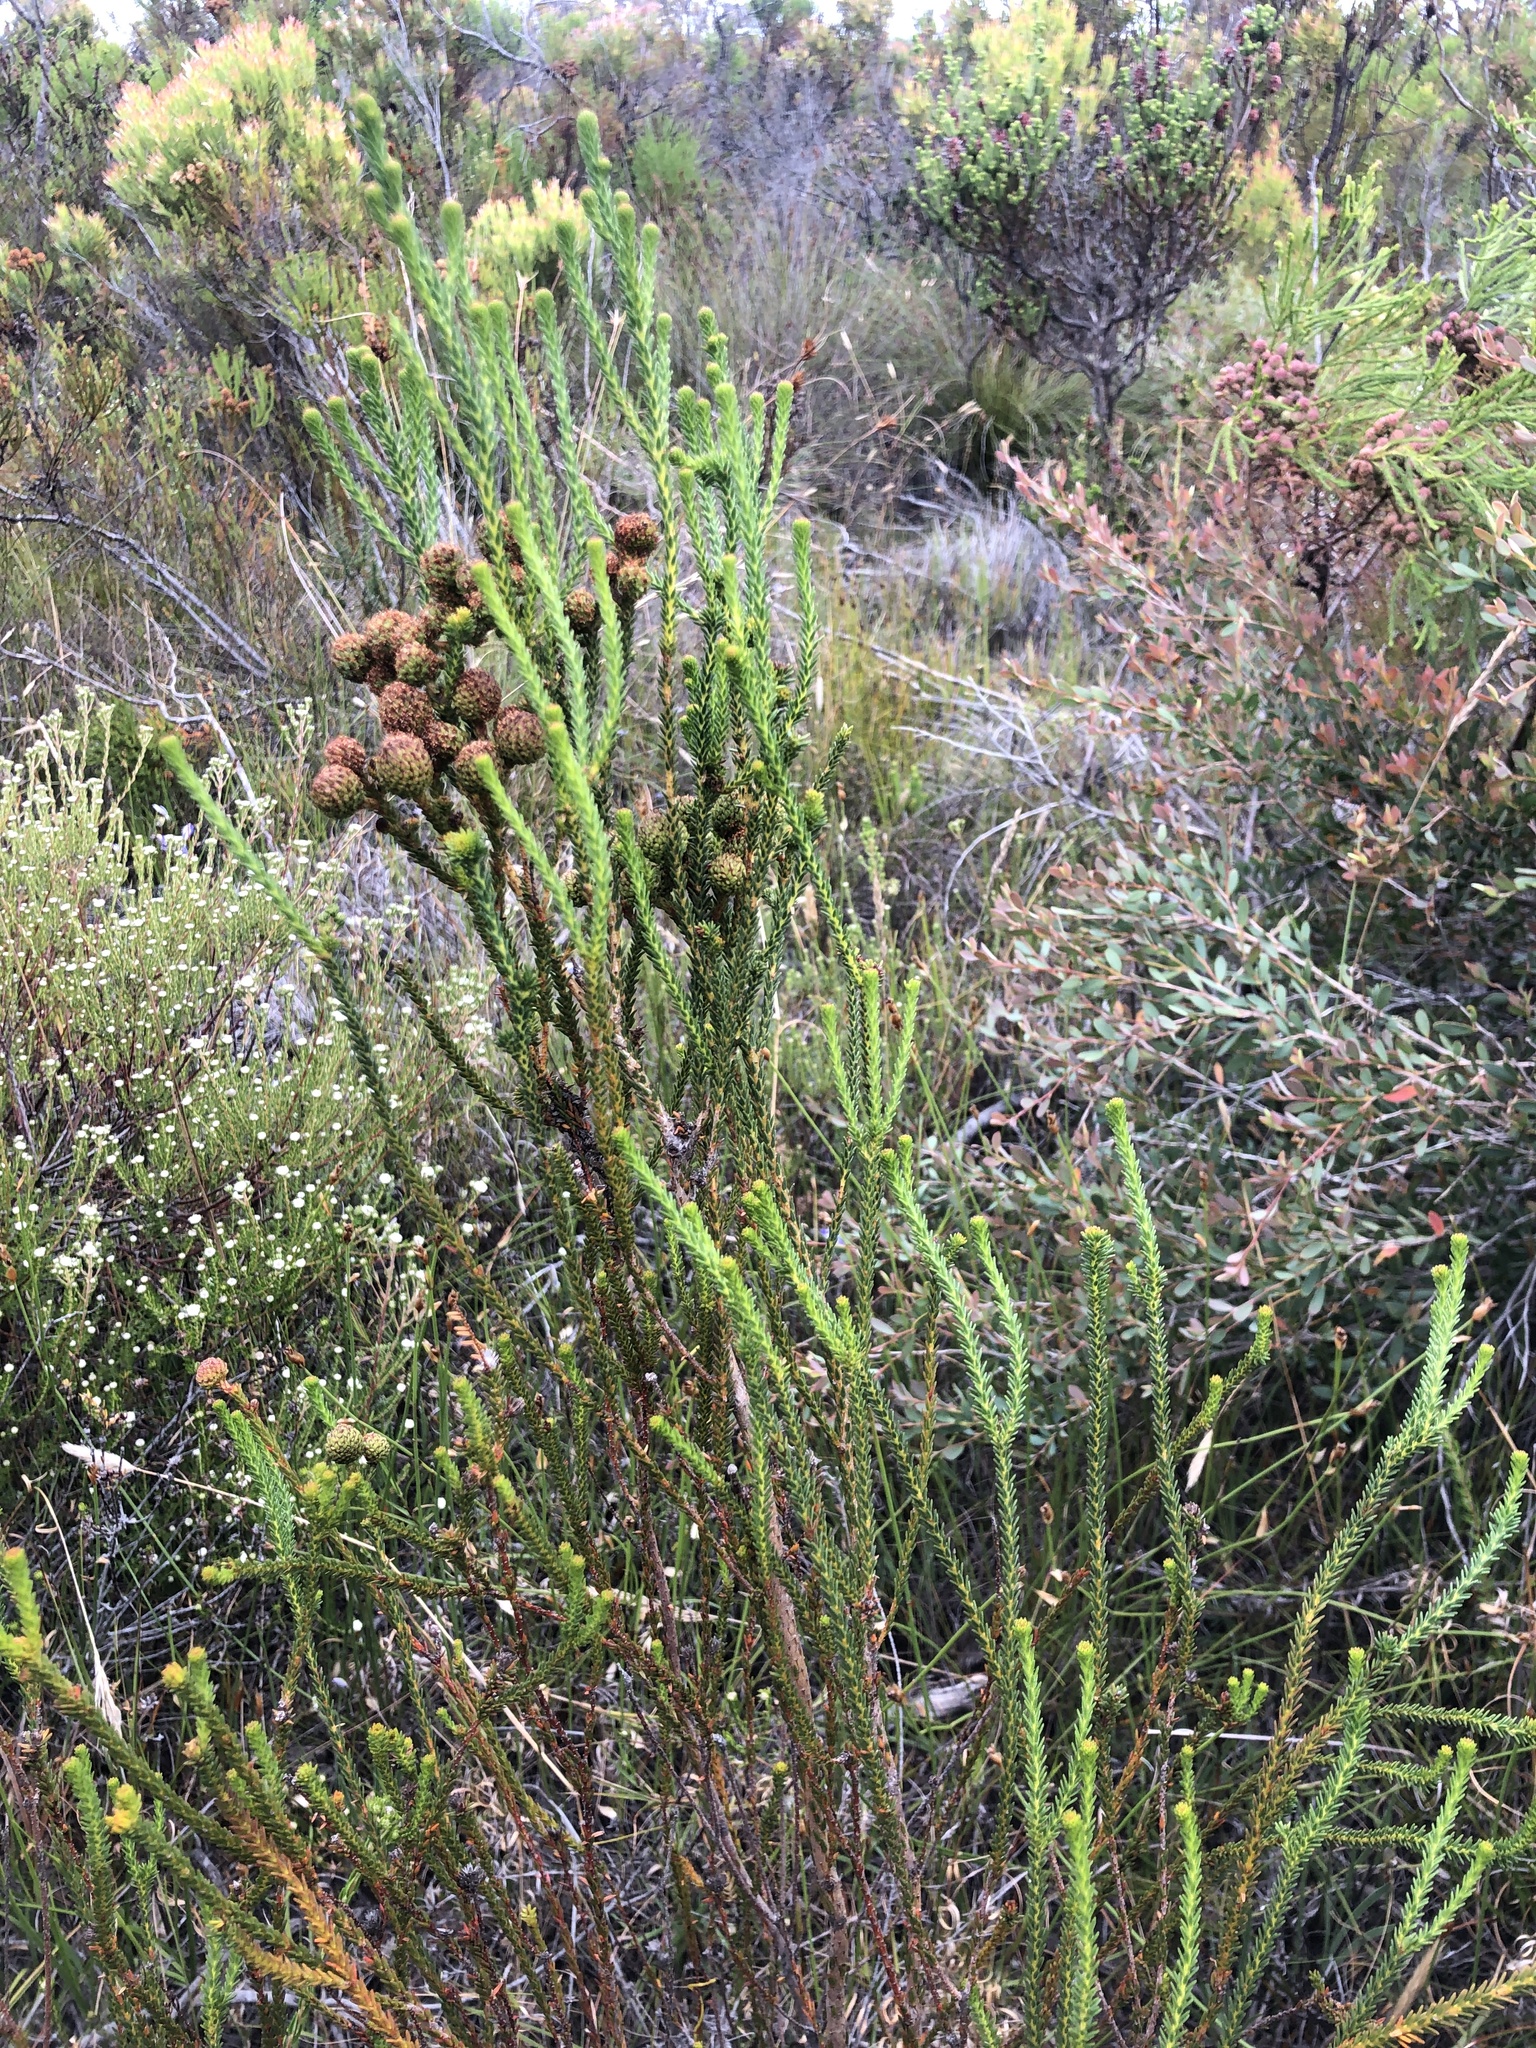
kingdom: Plantae
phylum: Tracheophyta
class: Magnoliopsida
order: Bruniales
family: Bruniaceae
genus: Berzelia
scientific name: Berzelia abrotanoides
